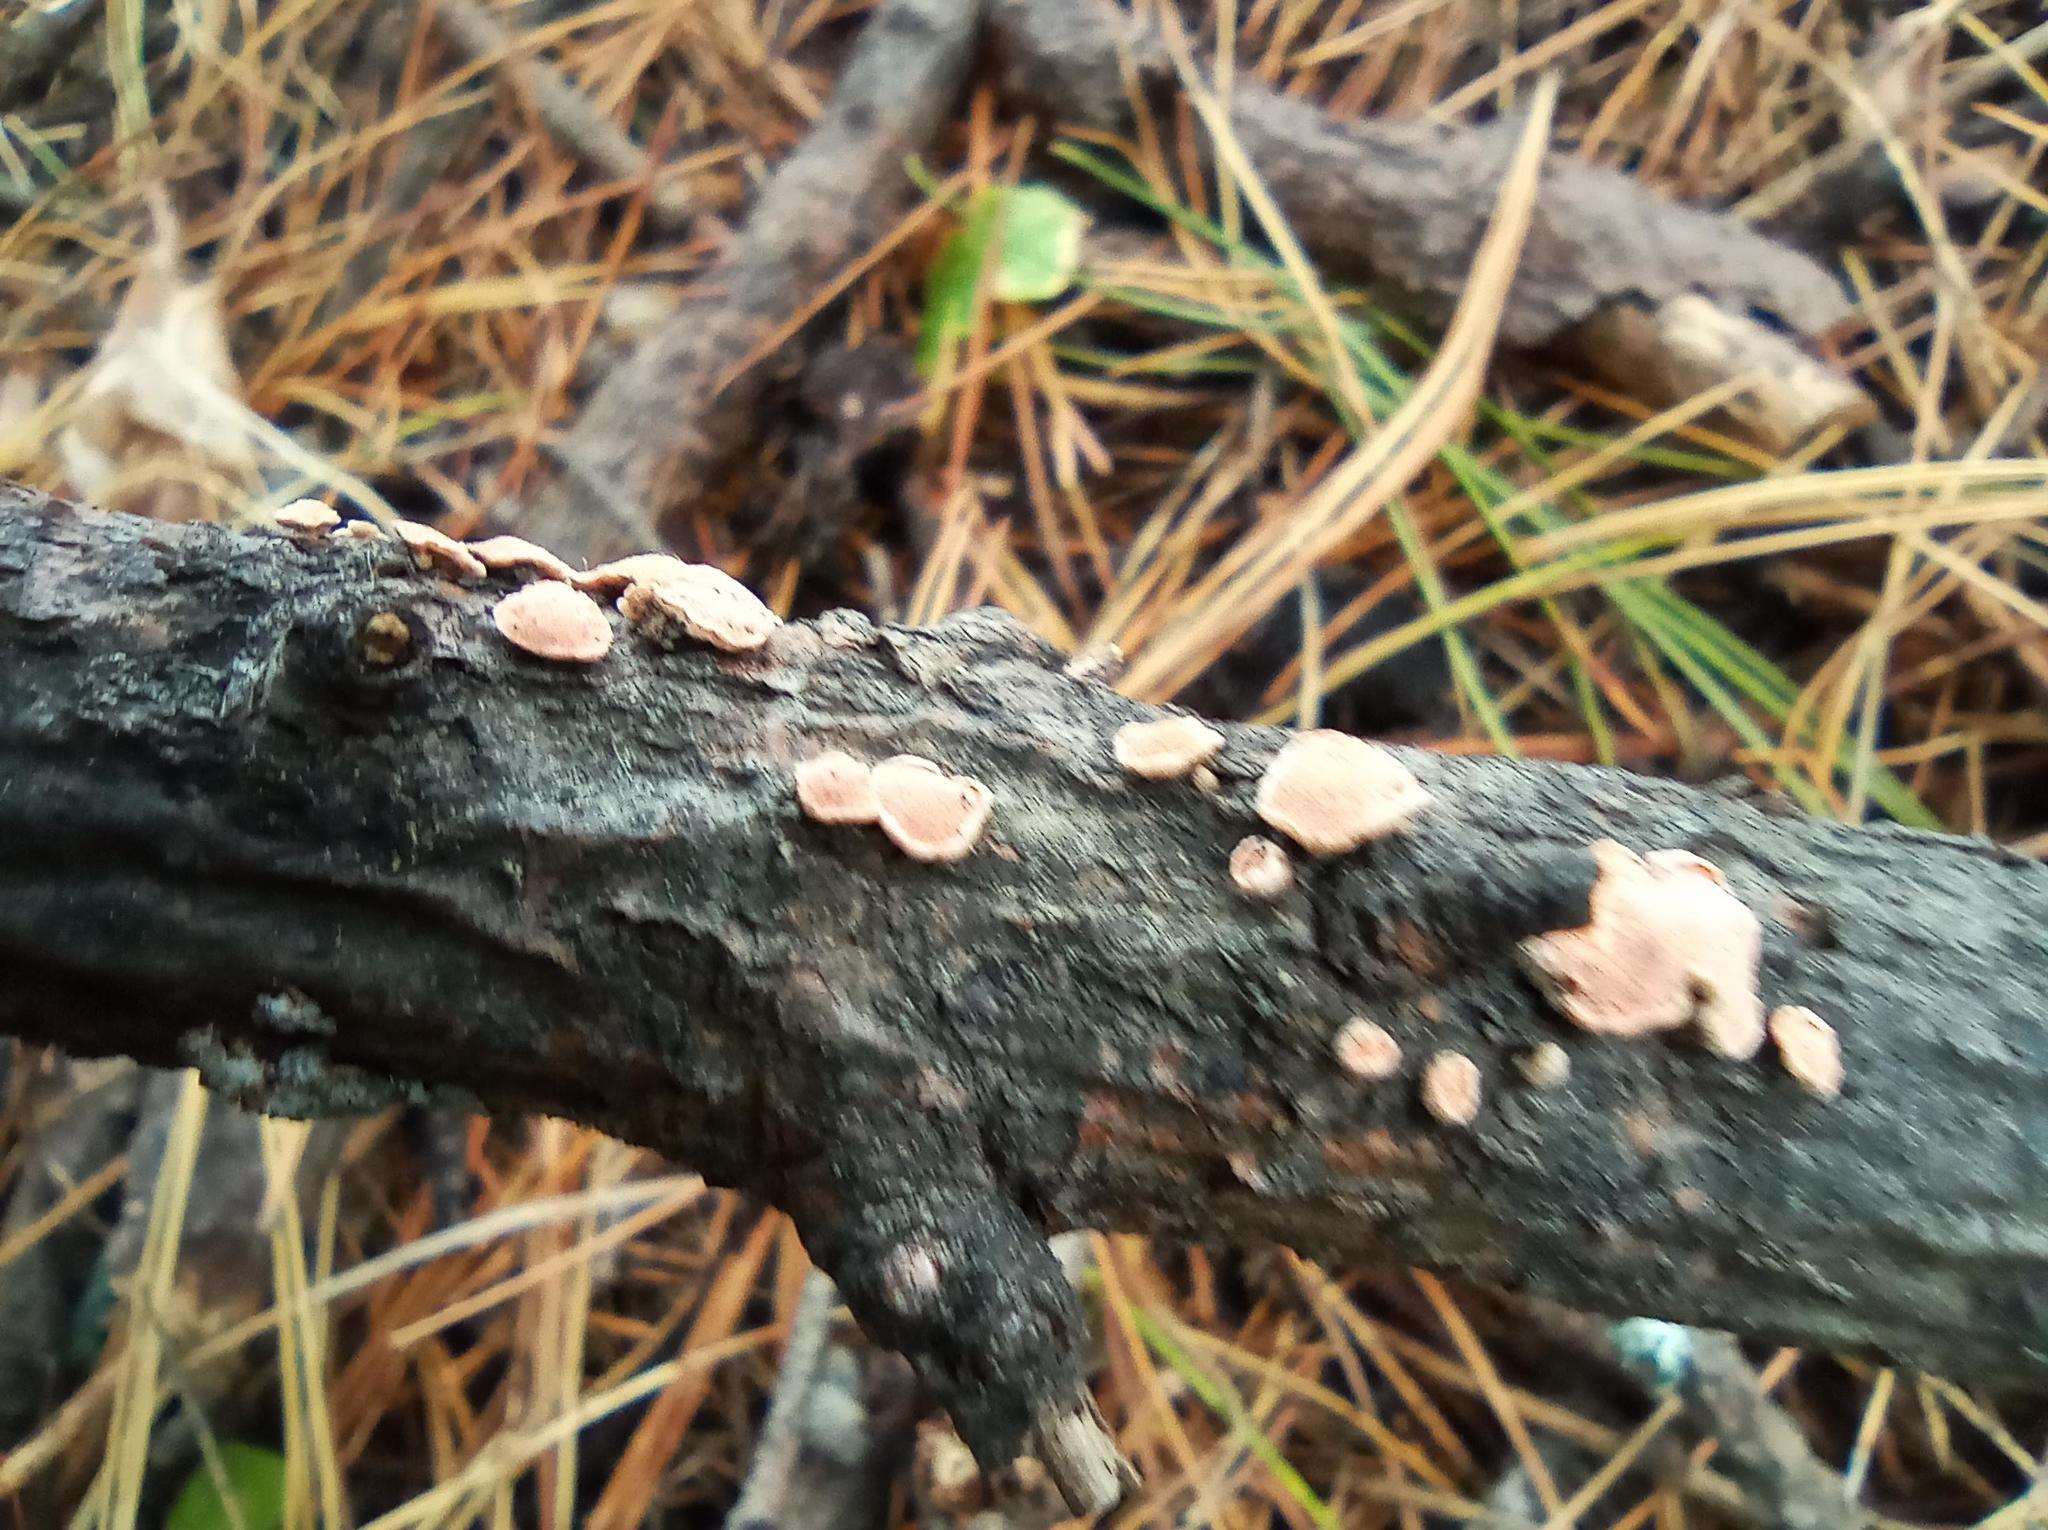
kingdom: Fungi
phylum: Basidiomycota
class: Agaricomycetes
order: Russulales
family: Stereaceae
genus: Aleurodiscus
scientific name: Aleurodiscus amorphus
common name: Orange discus
